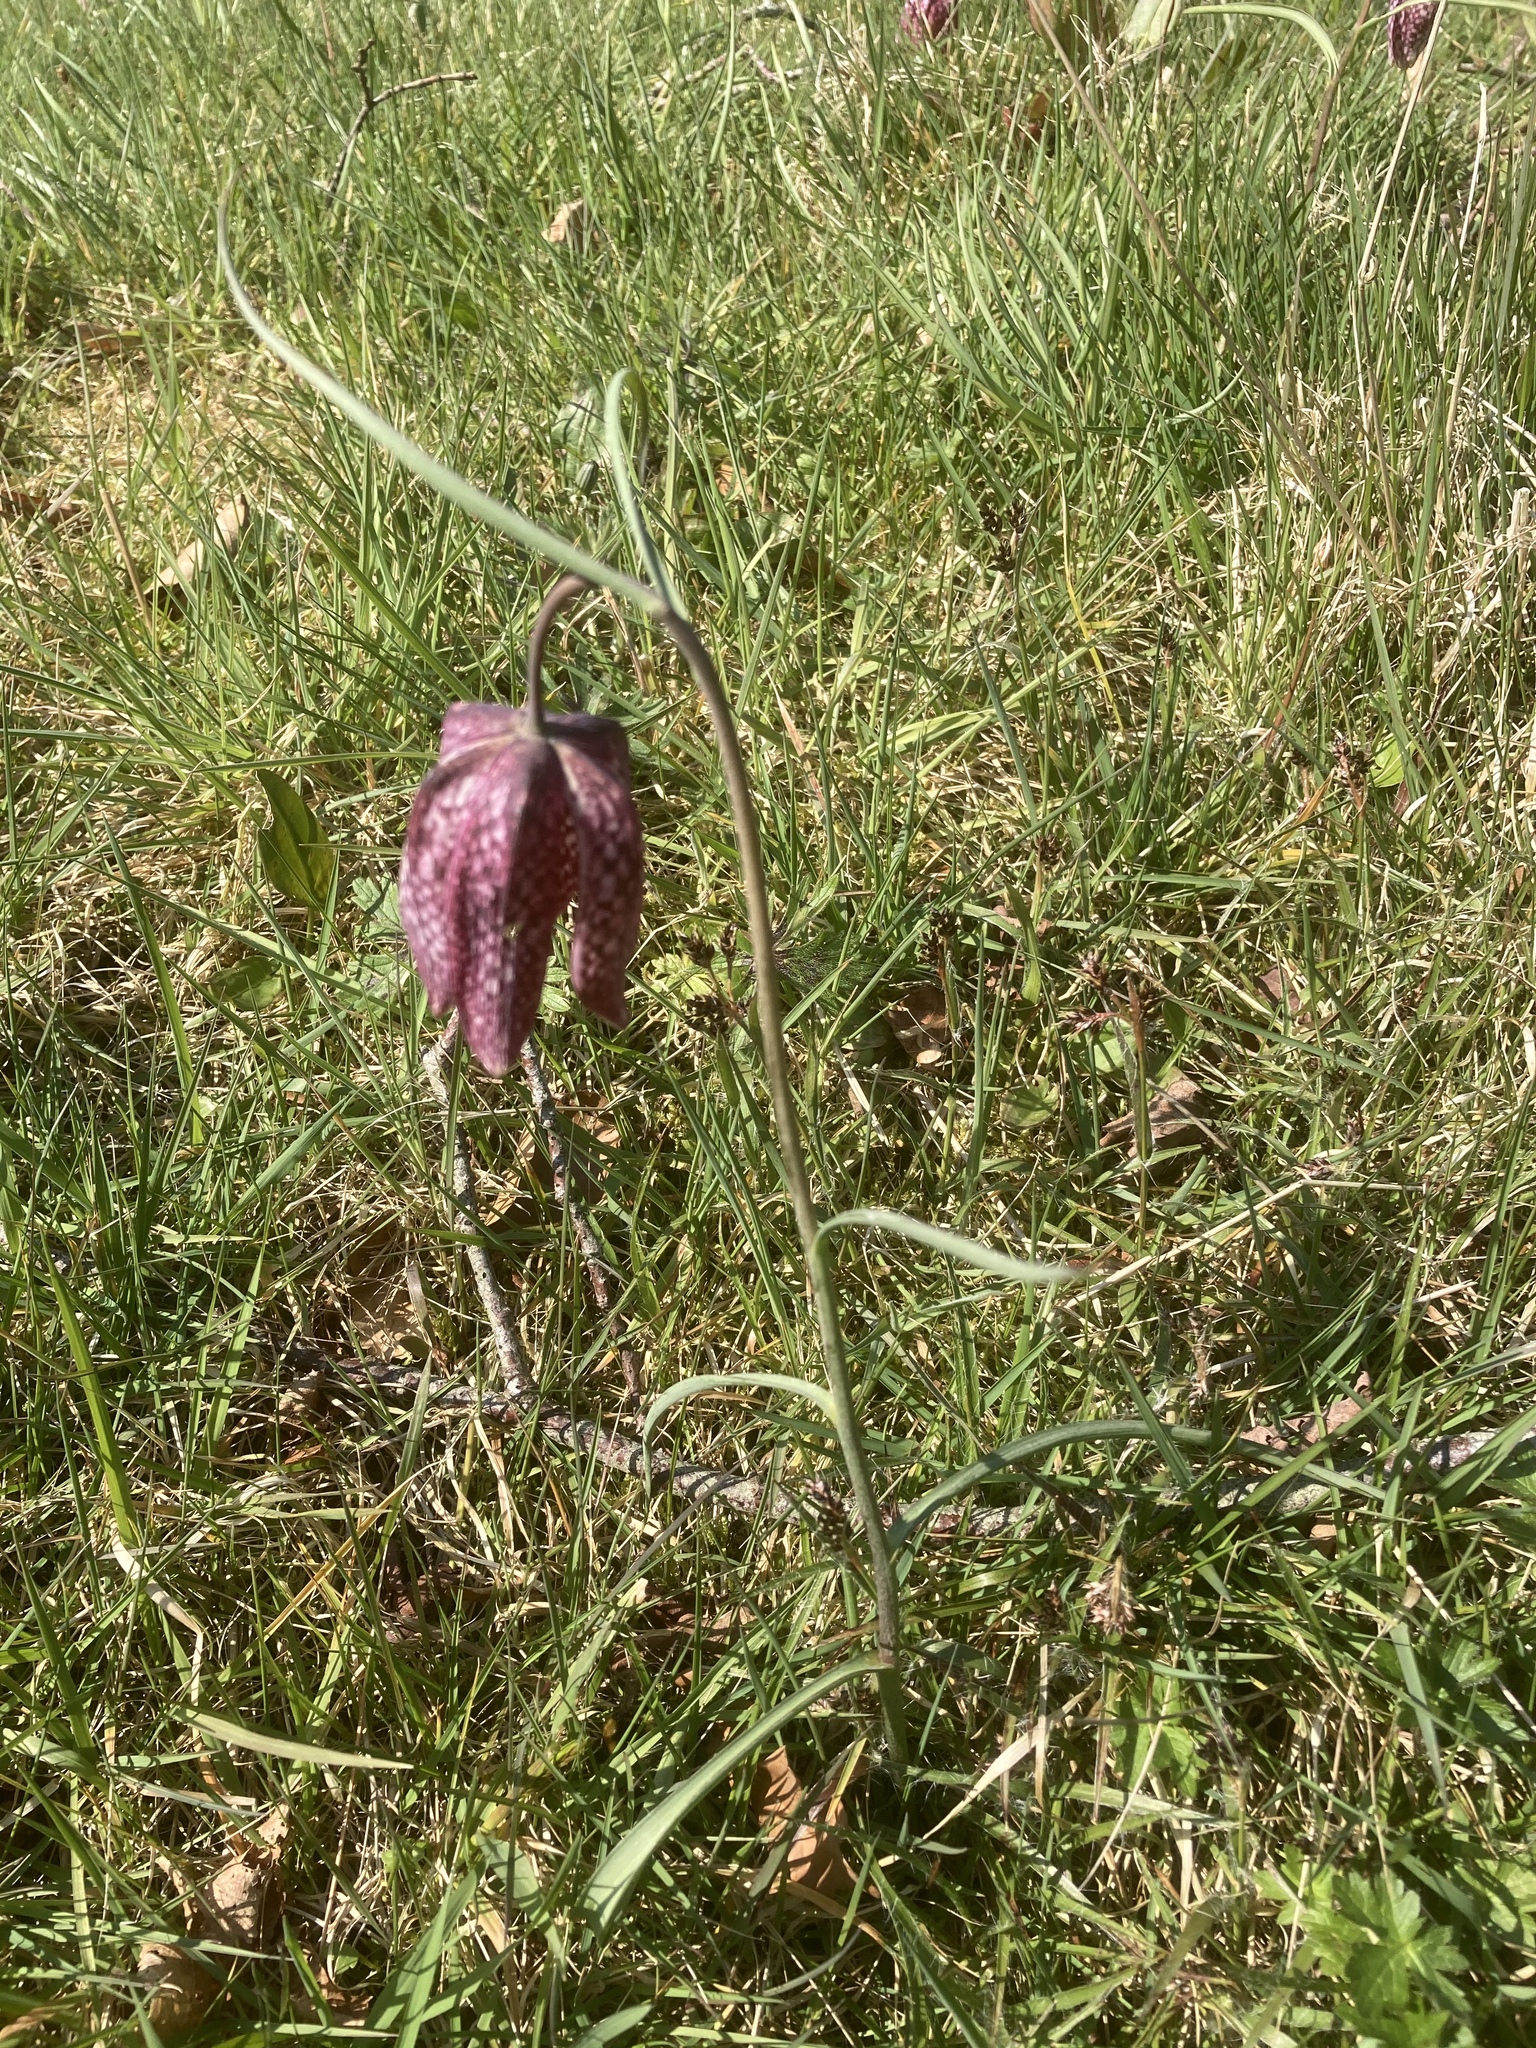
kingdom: Plantae
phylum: Tracheophyta
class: Liliopsida
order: Liliales
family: Liliaceae
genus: Fritillaria
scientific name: Fritillaria meleagris
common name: Fritillary
